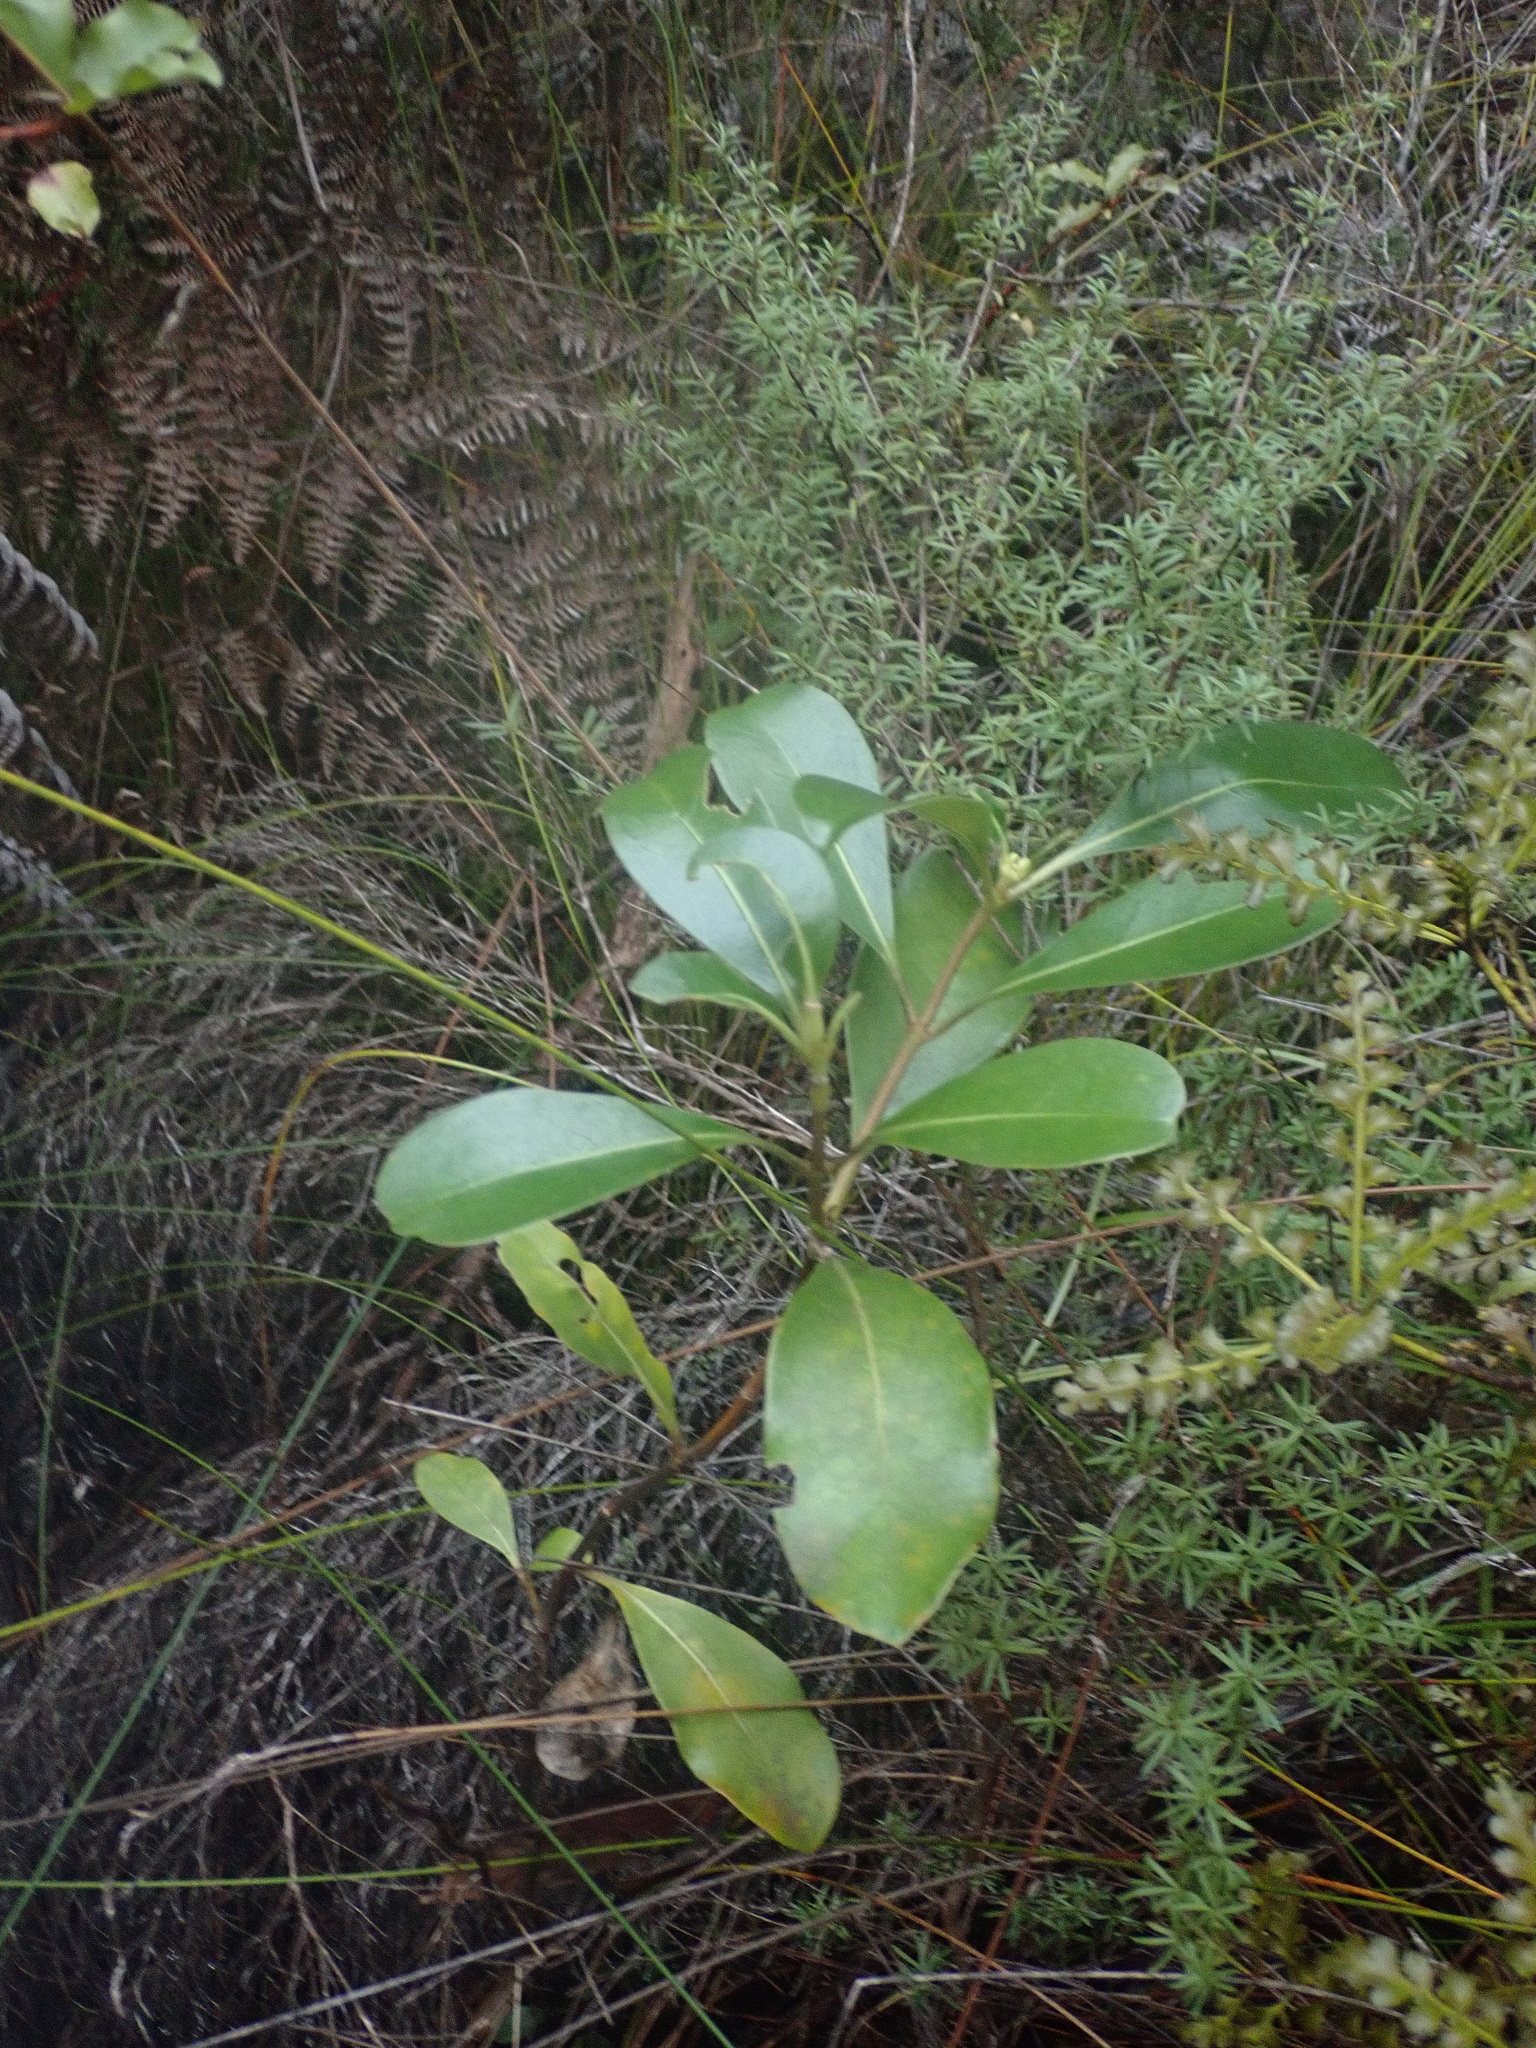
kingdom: Plantae
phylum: Tracheophyta
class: Magnoliopsida
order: Gentianales
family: Rubiaceae
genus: Coprosma
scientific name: Coprosma lucida
